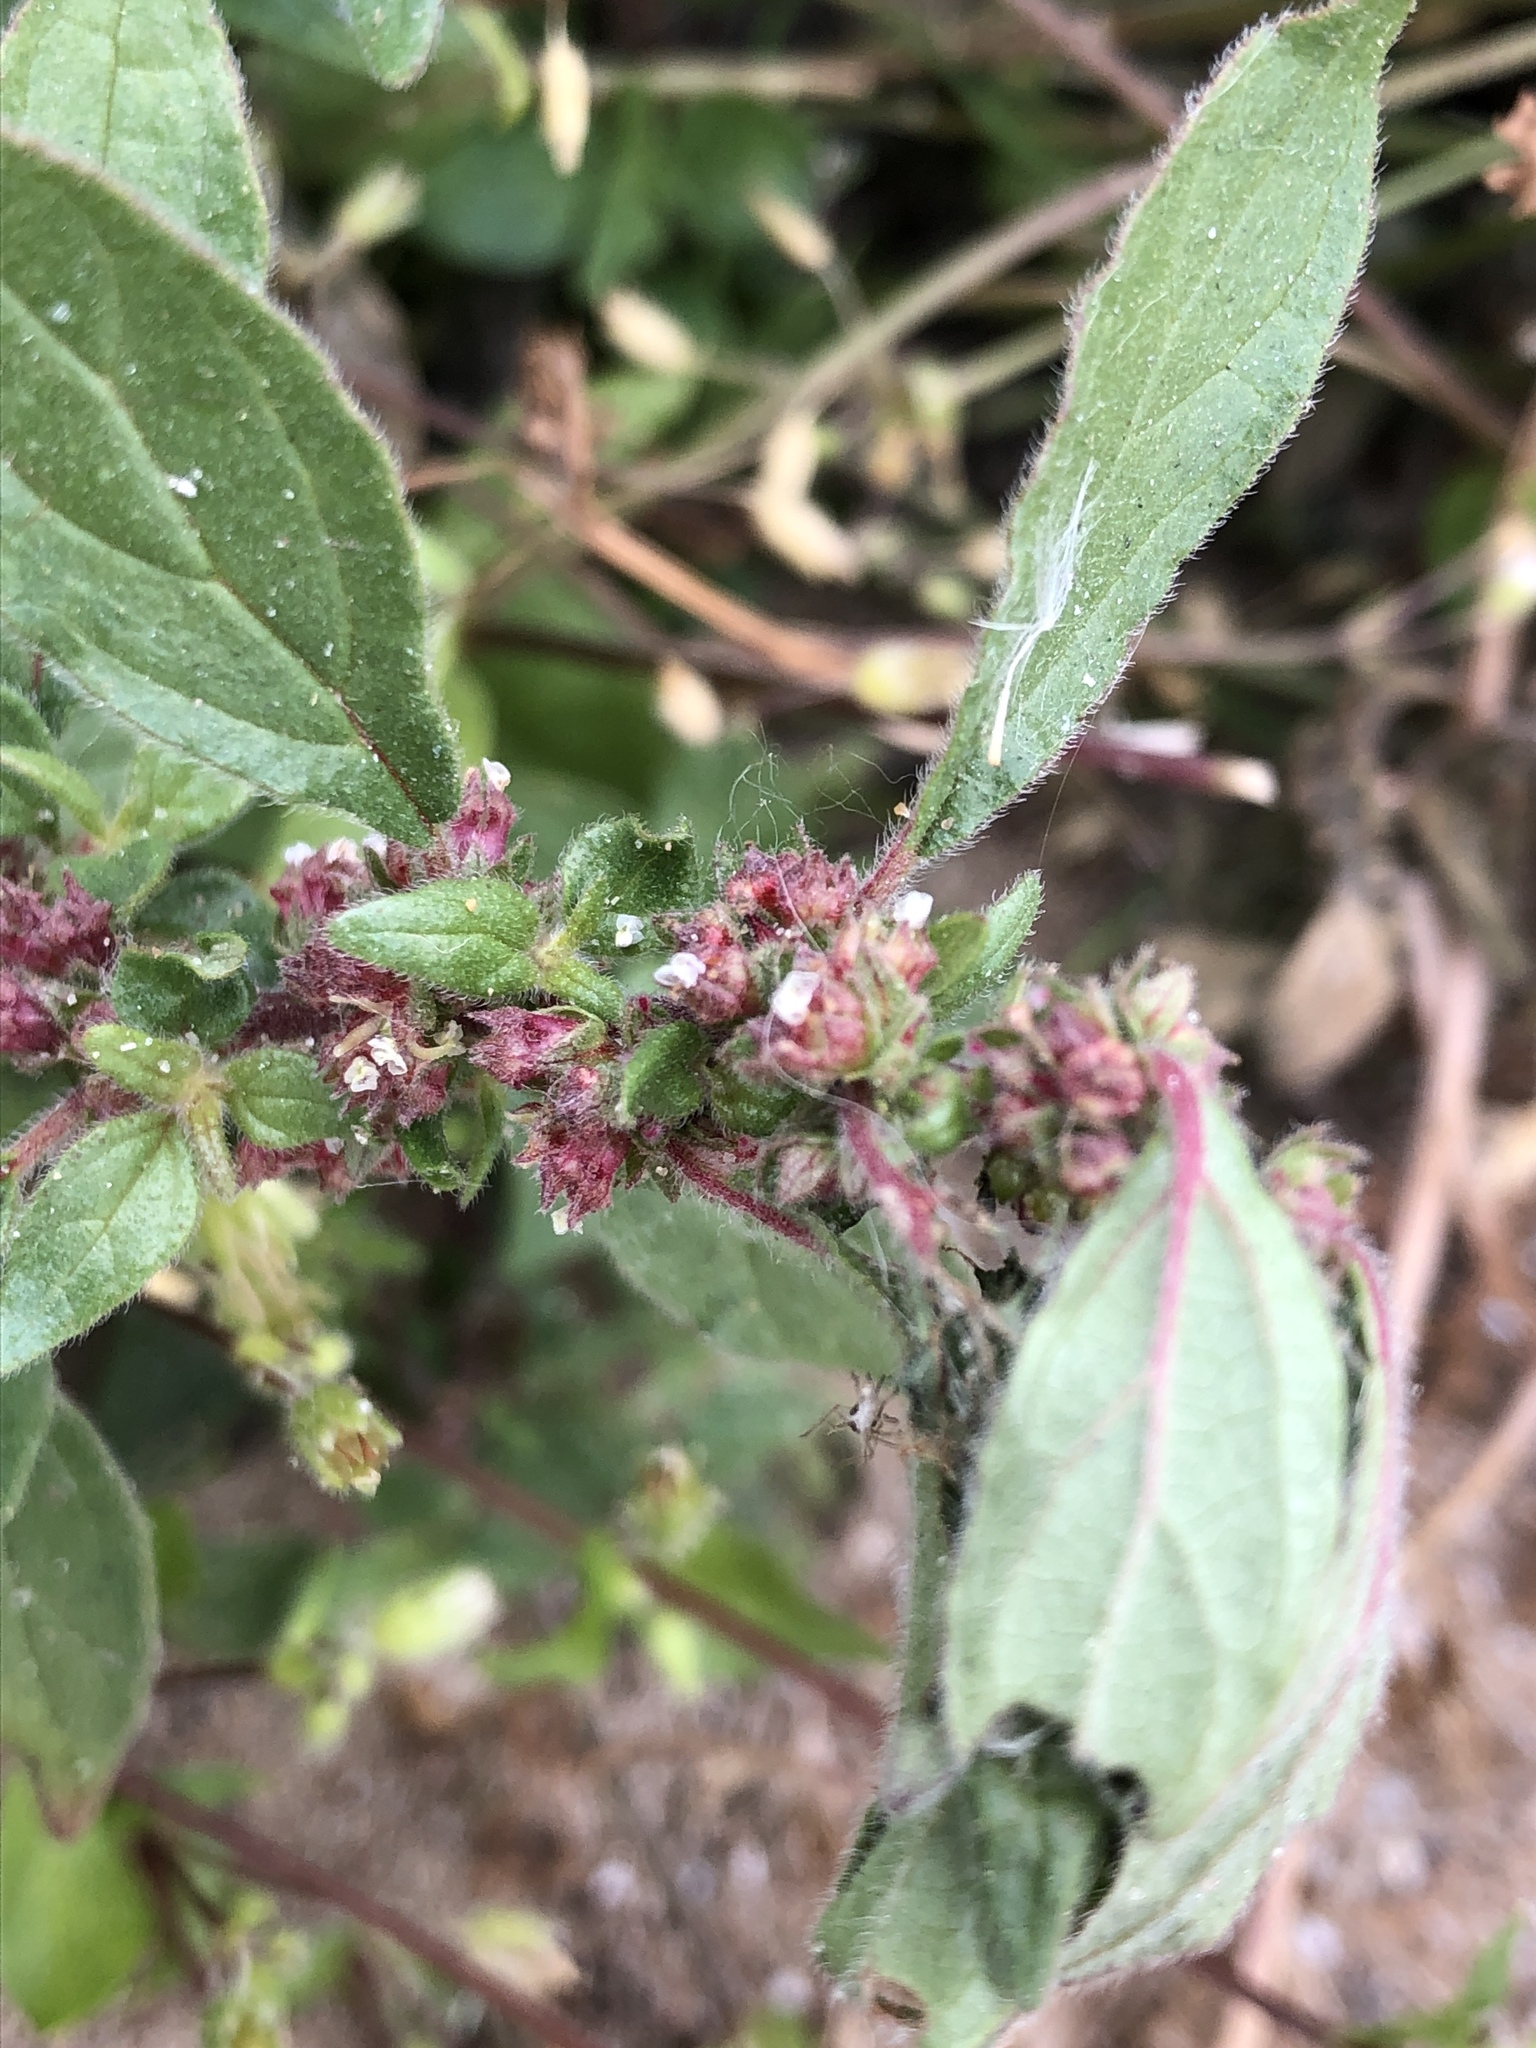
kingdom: Plantae
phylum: Tracheophyta
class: Magnoliopsida
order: Rosales
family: Urticaceae
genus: Parietaria
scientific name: Parietaria judaica
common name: Pellitory-of-the-wall
